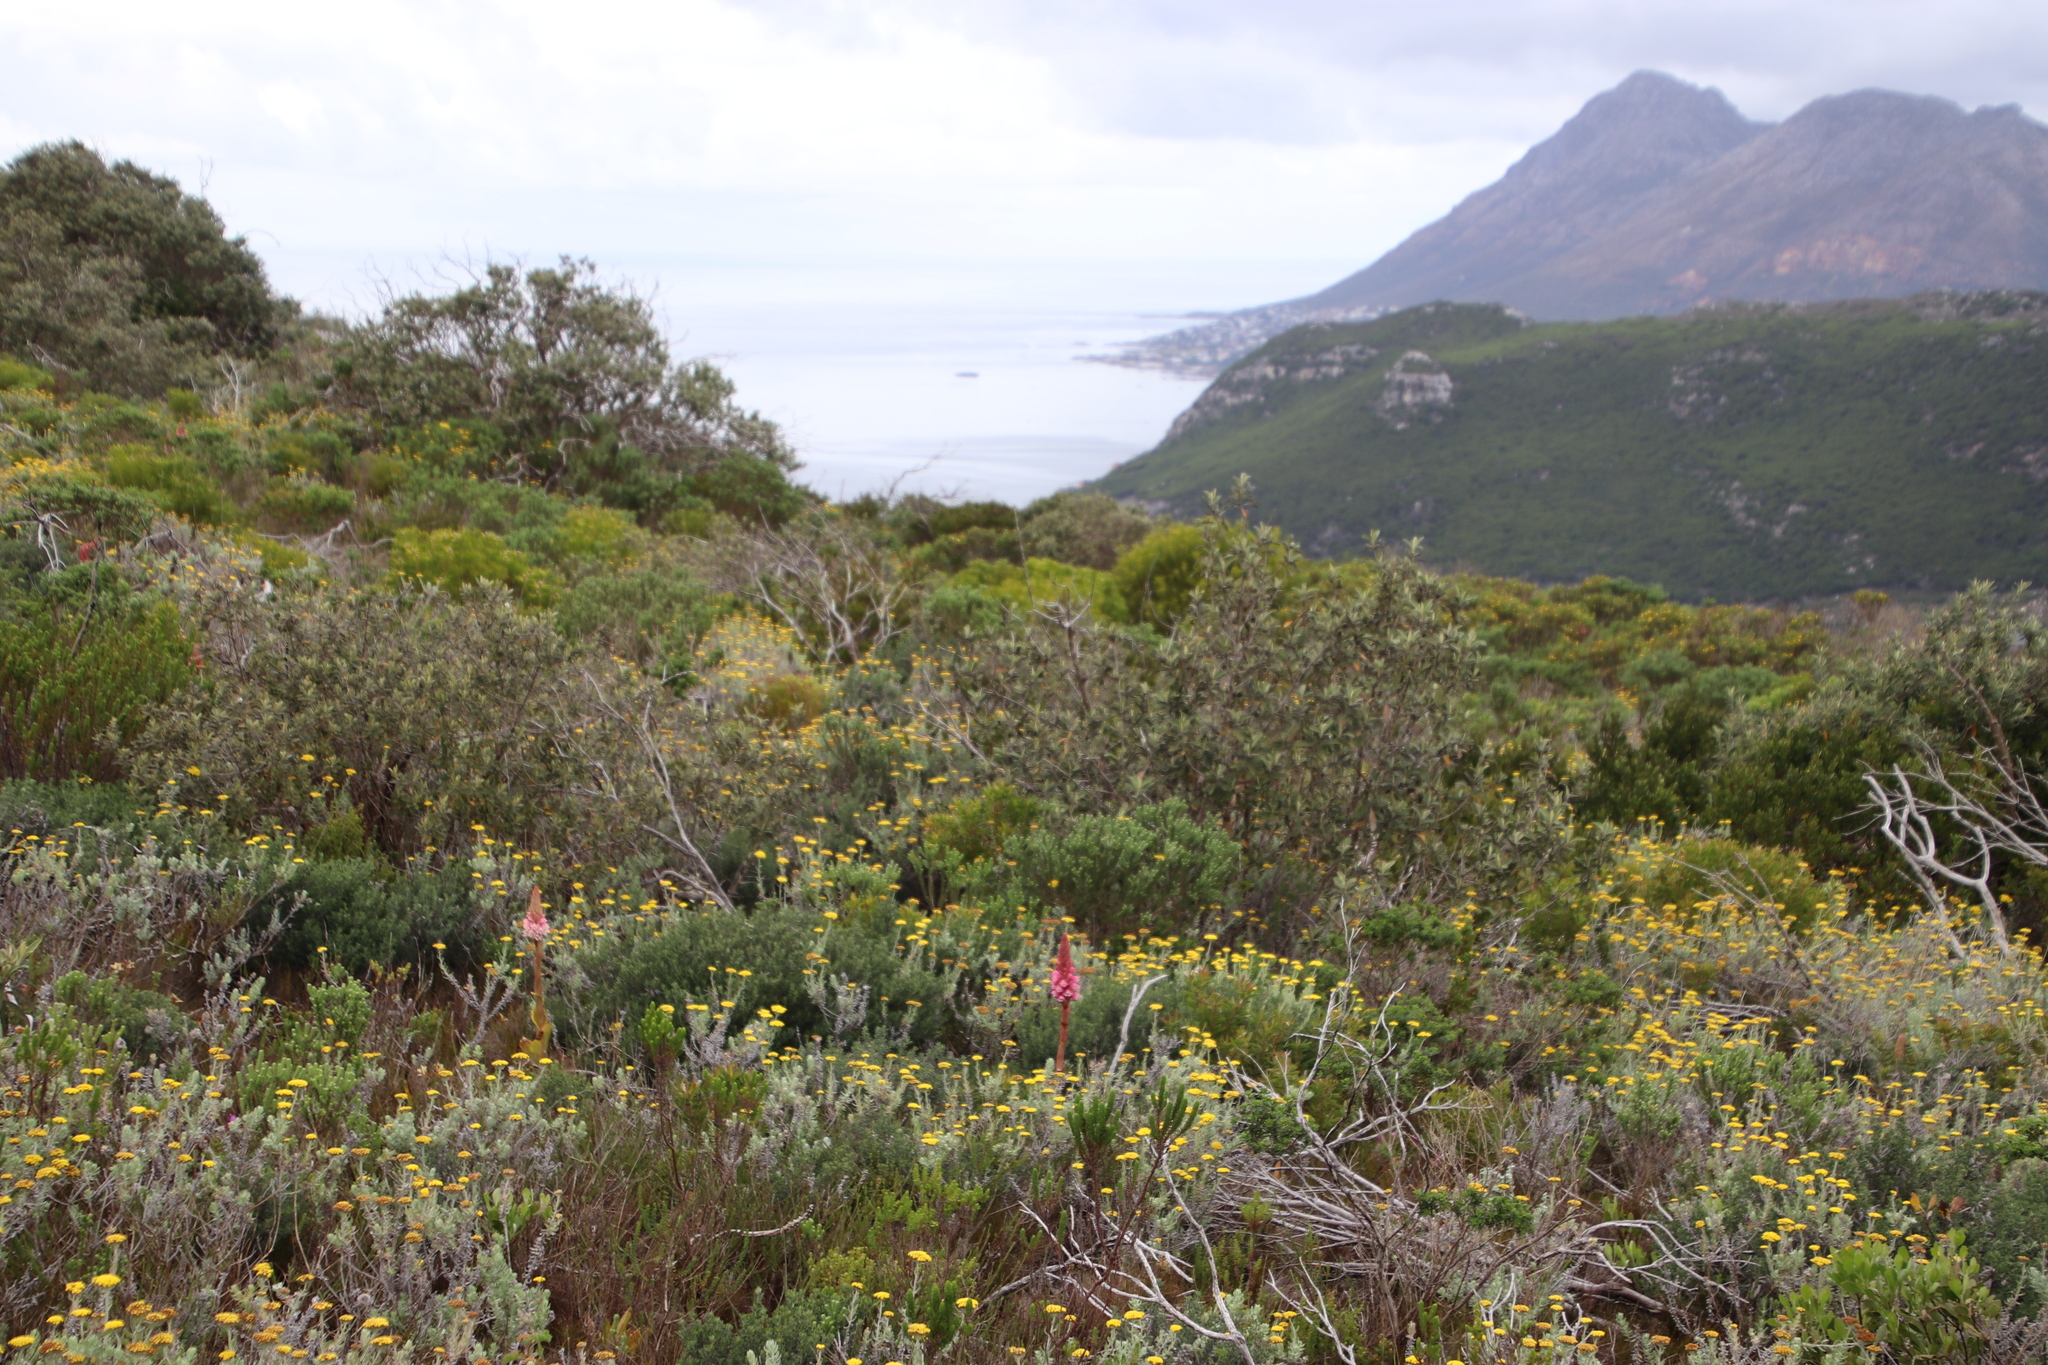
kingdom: Plantae
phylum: Tracheophyta
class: Liliopsida
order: Asparagales
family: Orchidaceae
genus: Satyrium
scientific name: Satyrium carneum
